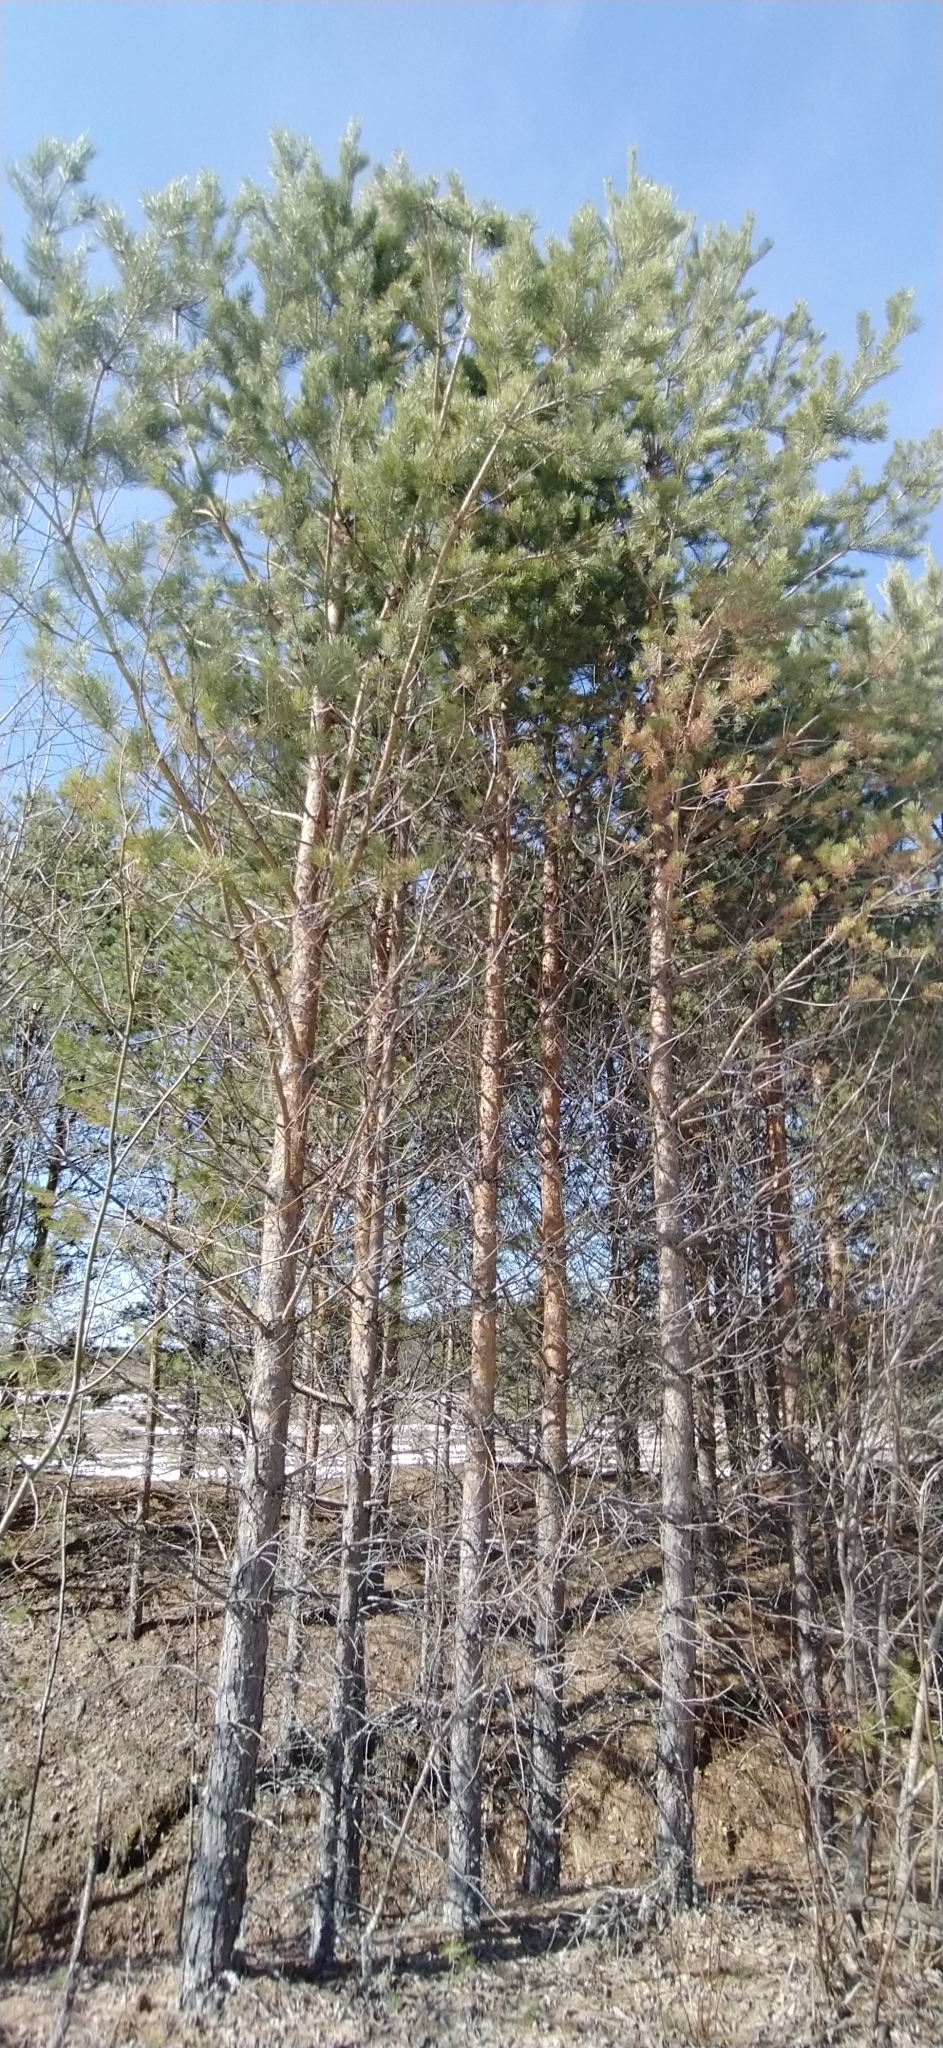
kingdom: Plantae
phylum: Tracheophyta
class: Pinopsida
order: Pinales
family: Pinaceae
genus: Pinus
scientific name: Pinus sylvestris
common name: Scots pine
